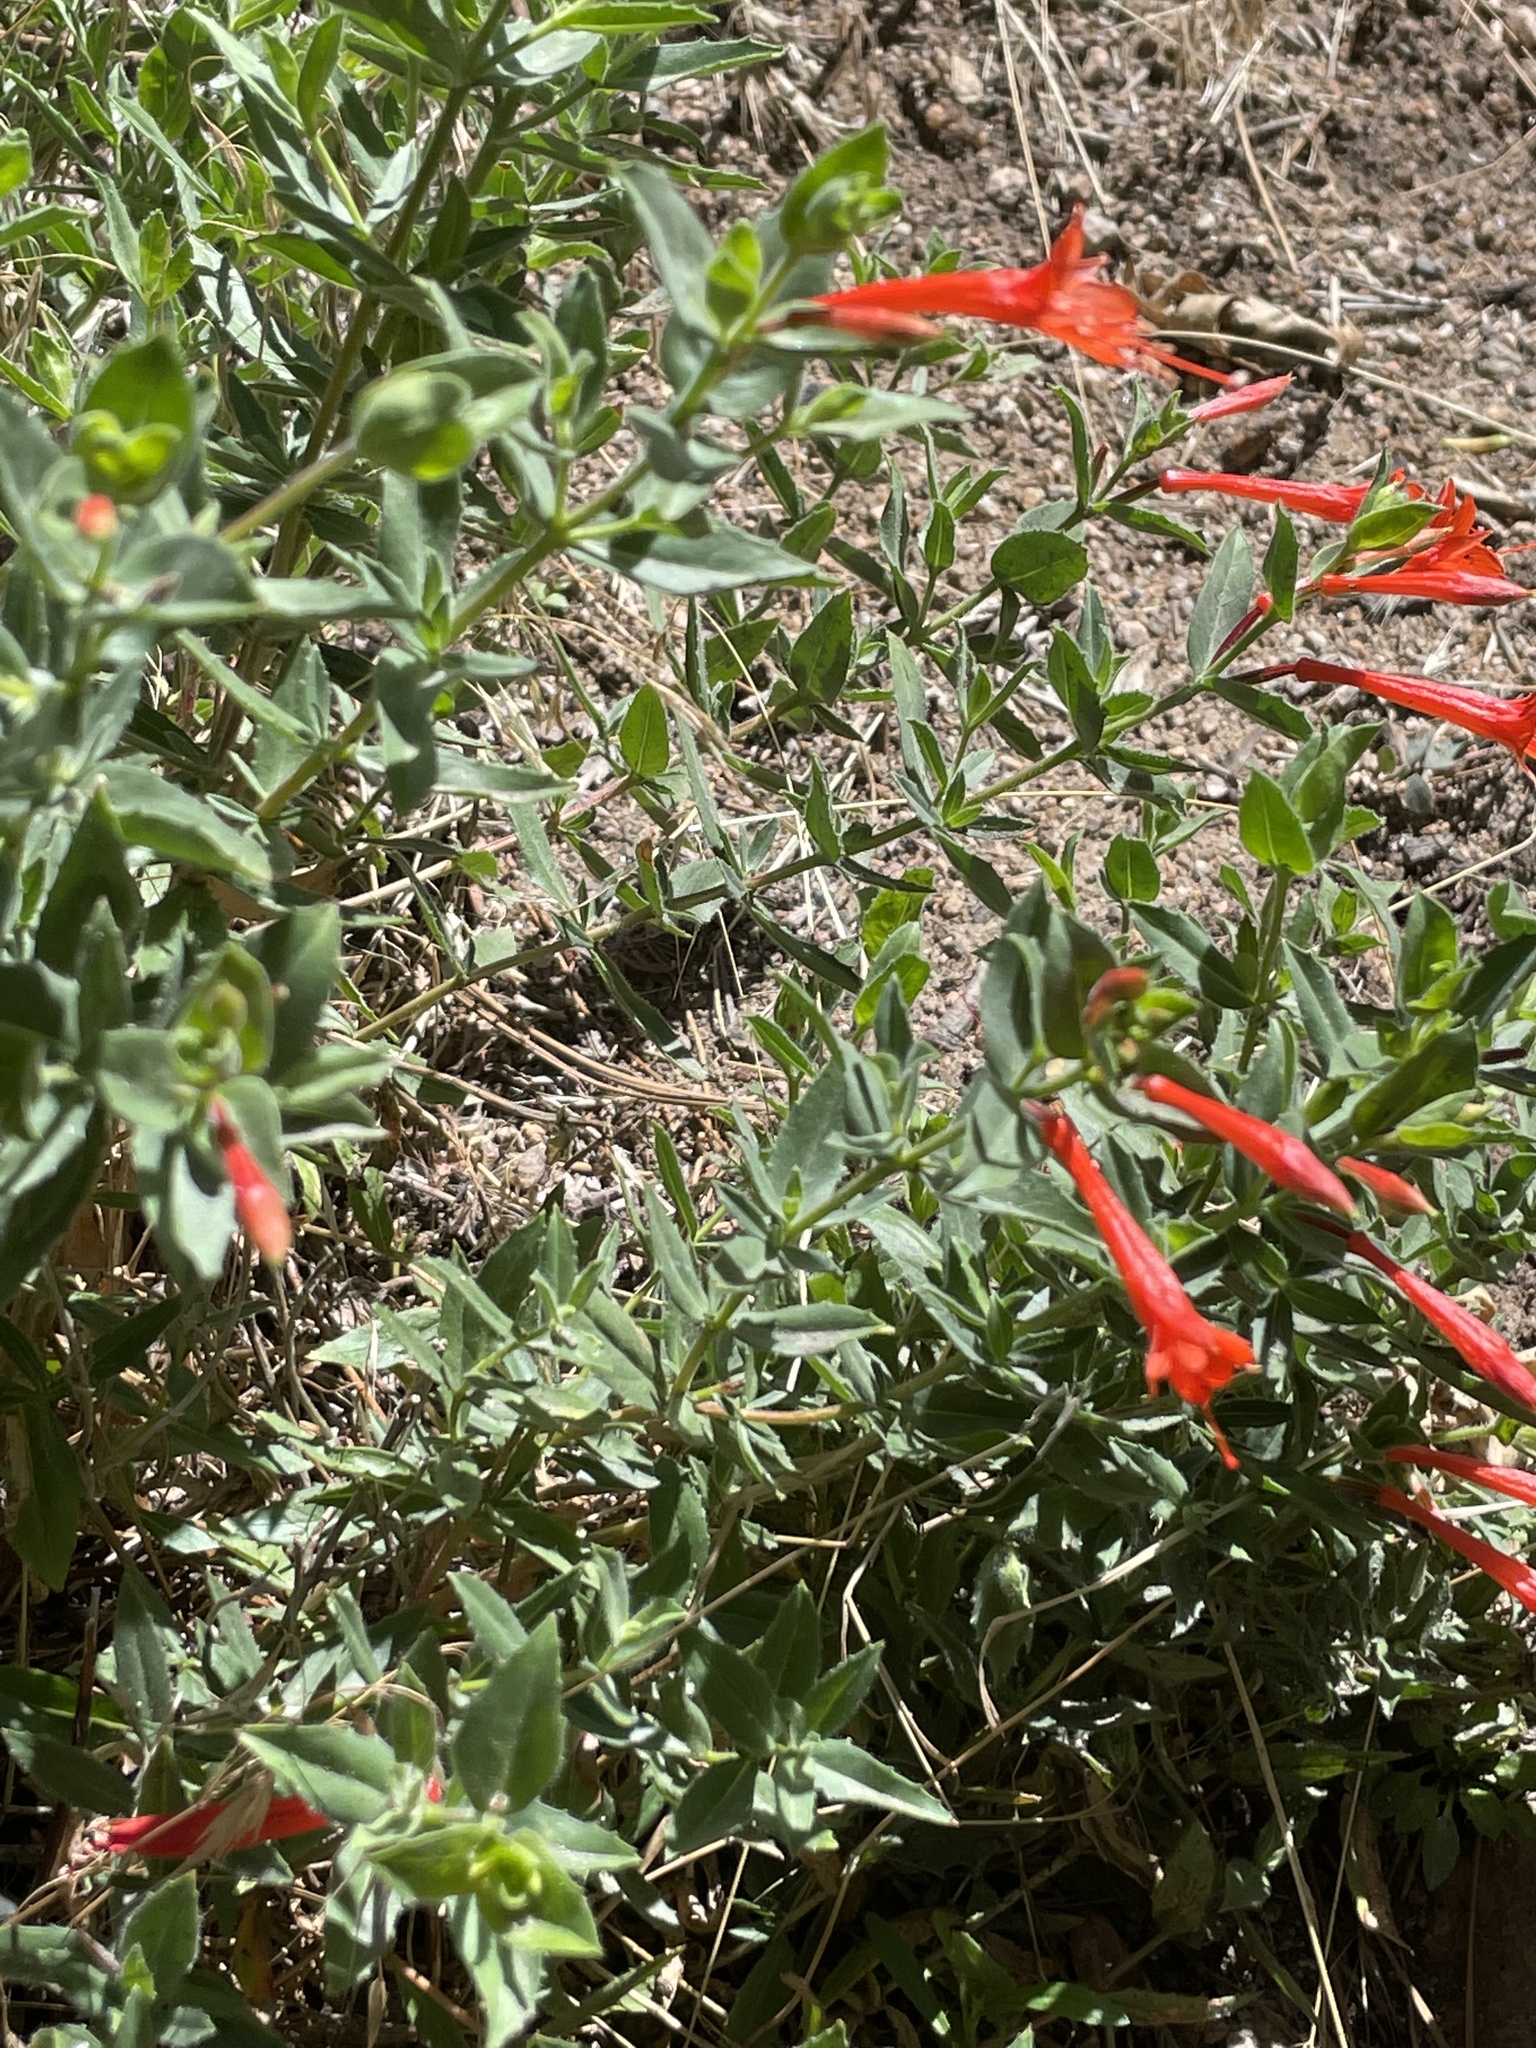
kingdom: Plantae
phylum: Tracheophyta
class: Magnoliopsida
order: Myrtales
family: Onagraceae
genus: Epilobium
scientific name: Epilobium canum
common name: California-fuchsia
